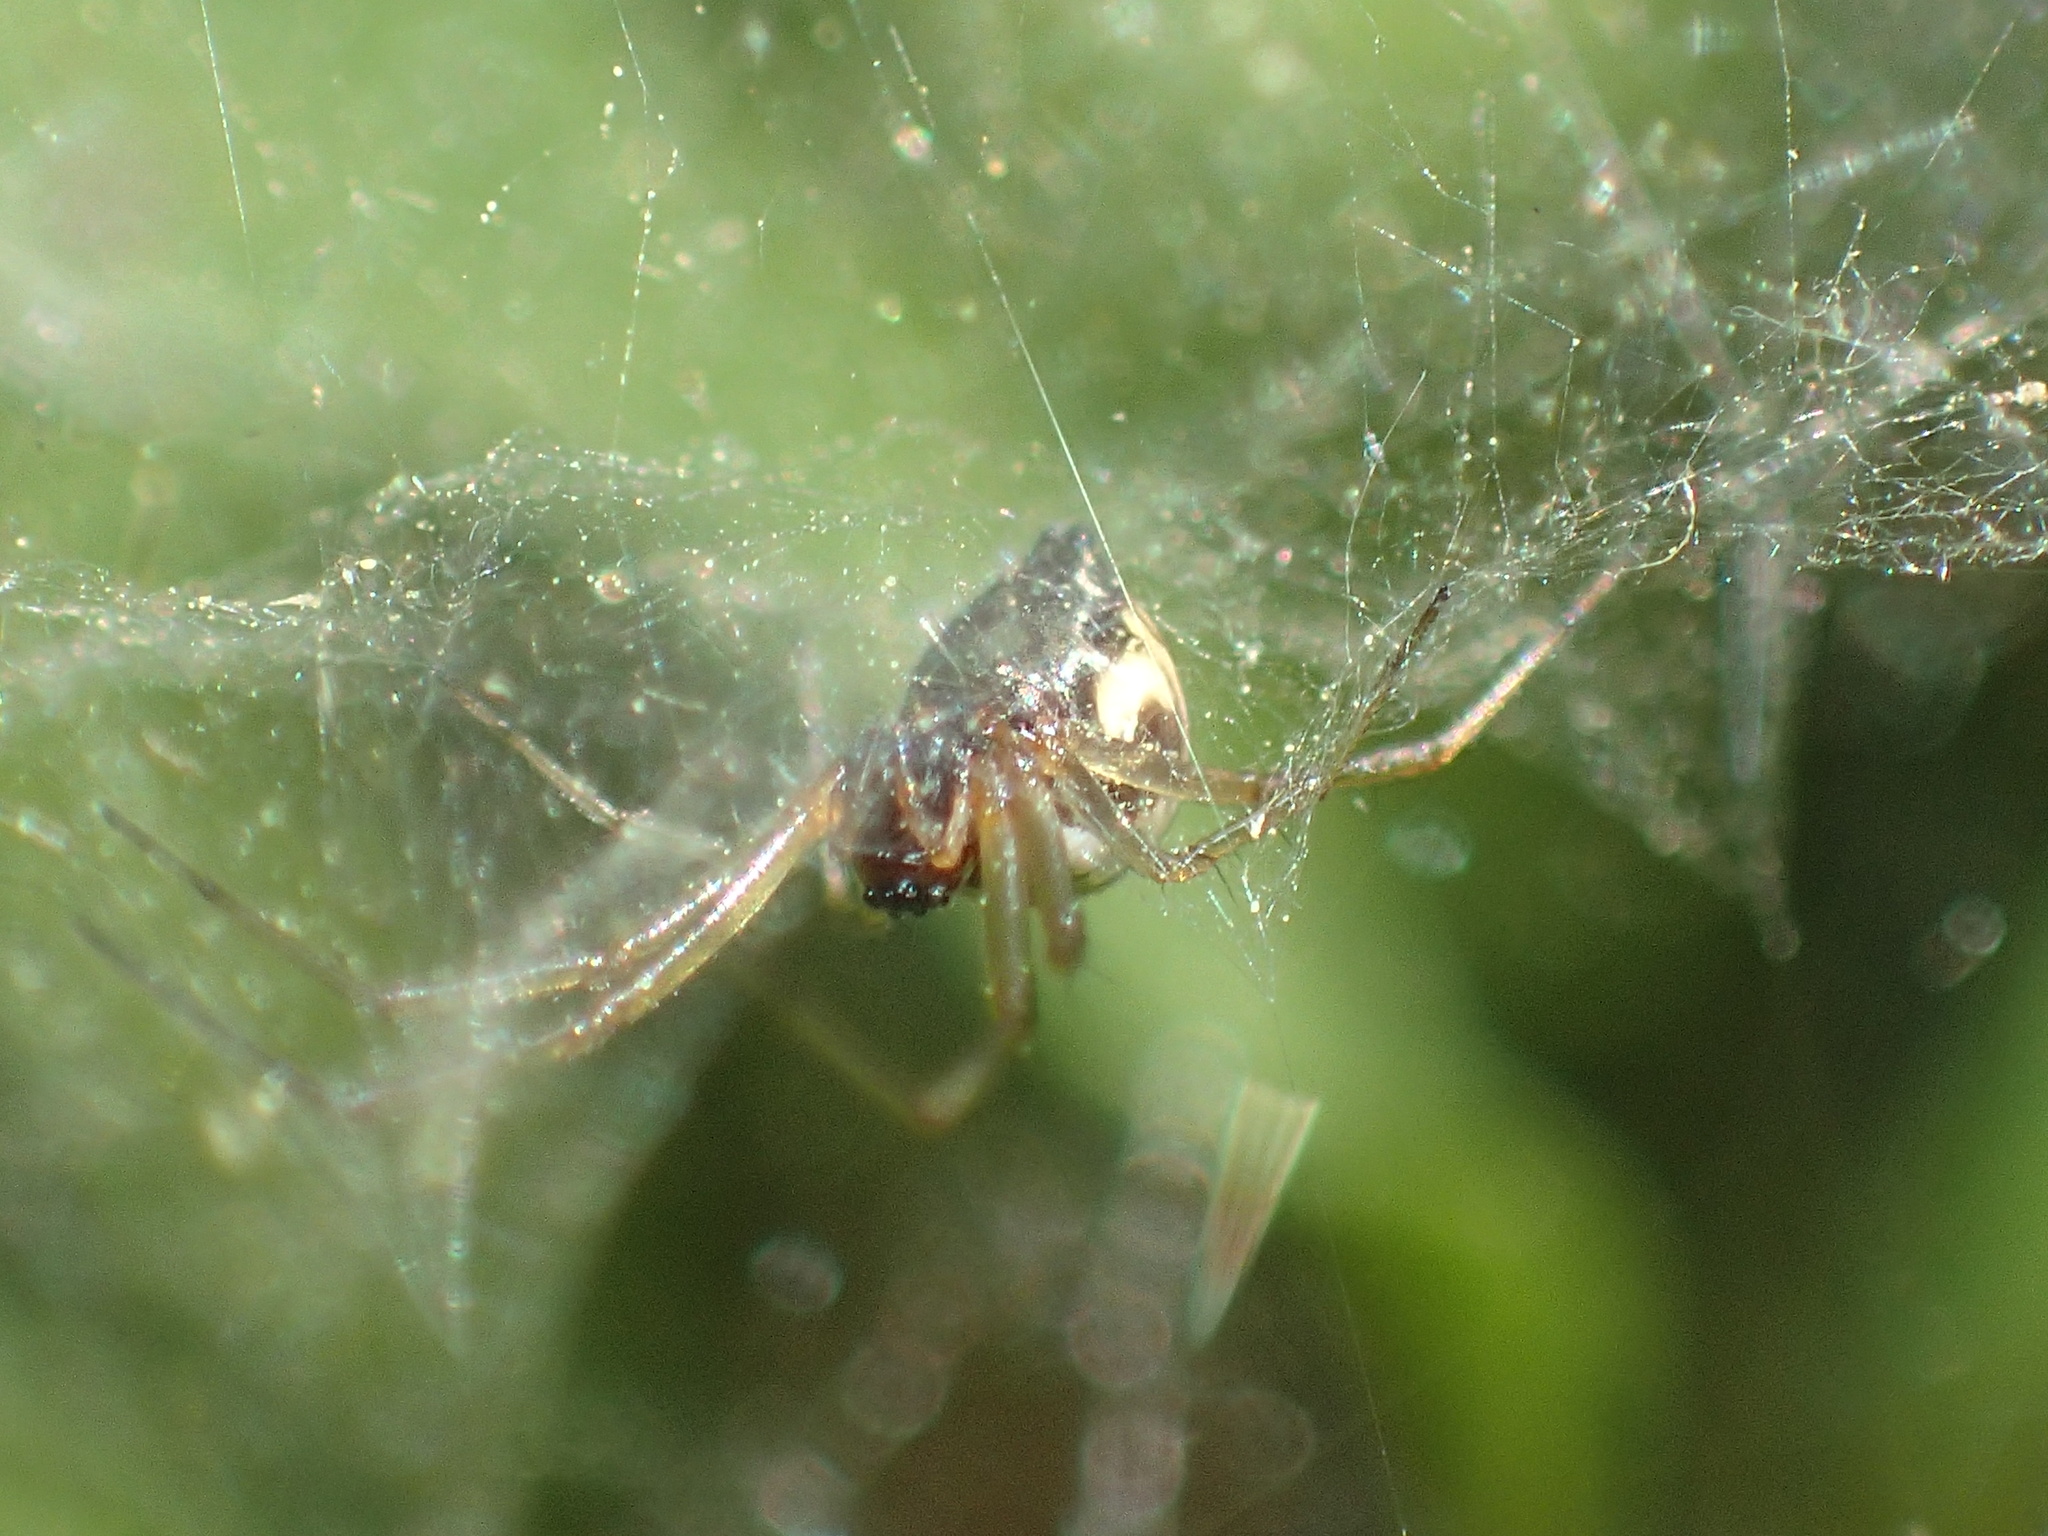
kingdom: Animalia
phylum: Arthropoda
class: Arachnida
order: Araneae
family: Linyphiidae
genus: Frontinella
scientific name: Frontinella pyramitela
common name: Bowl-and-doily spider
